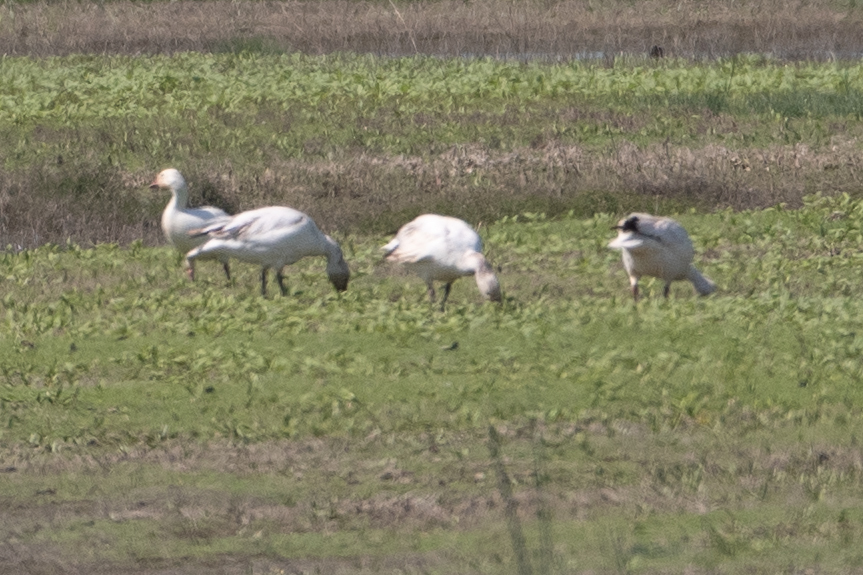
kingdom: Animalia
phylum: Chordata
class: Aves
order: Anseriformes
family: Anatidae
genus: Anser
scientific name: Anser caerulescens
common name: Snow goose
